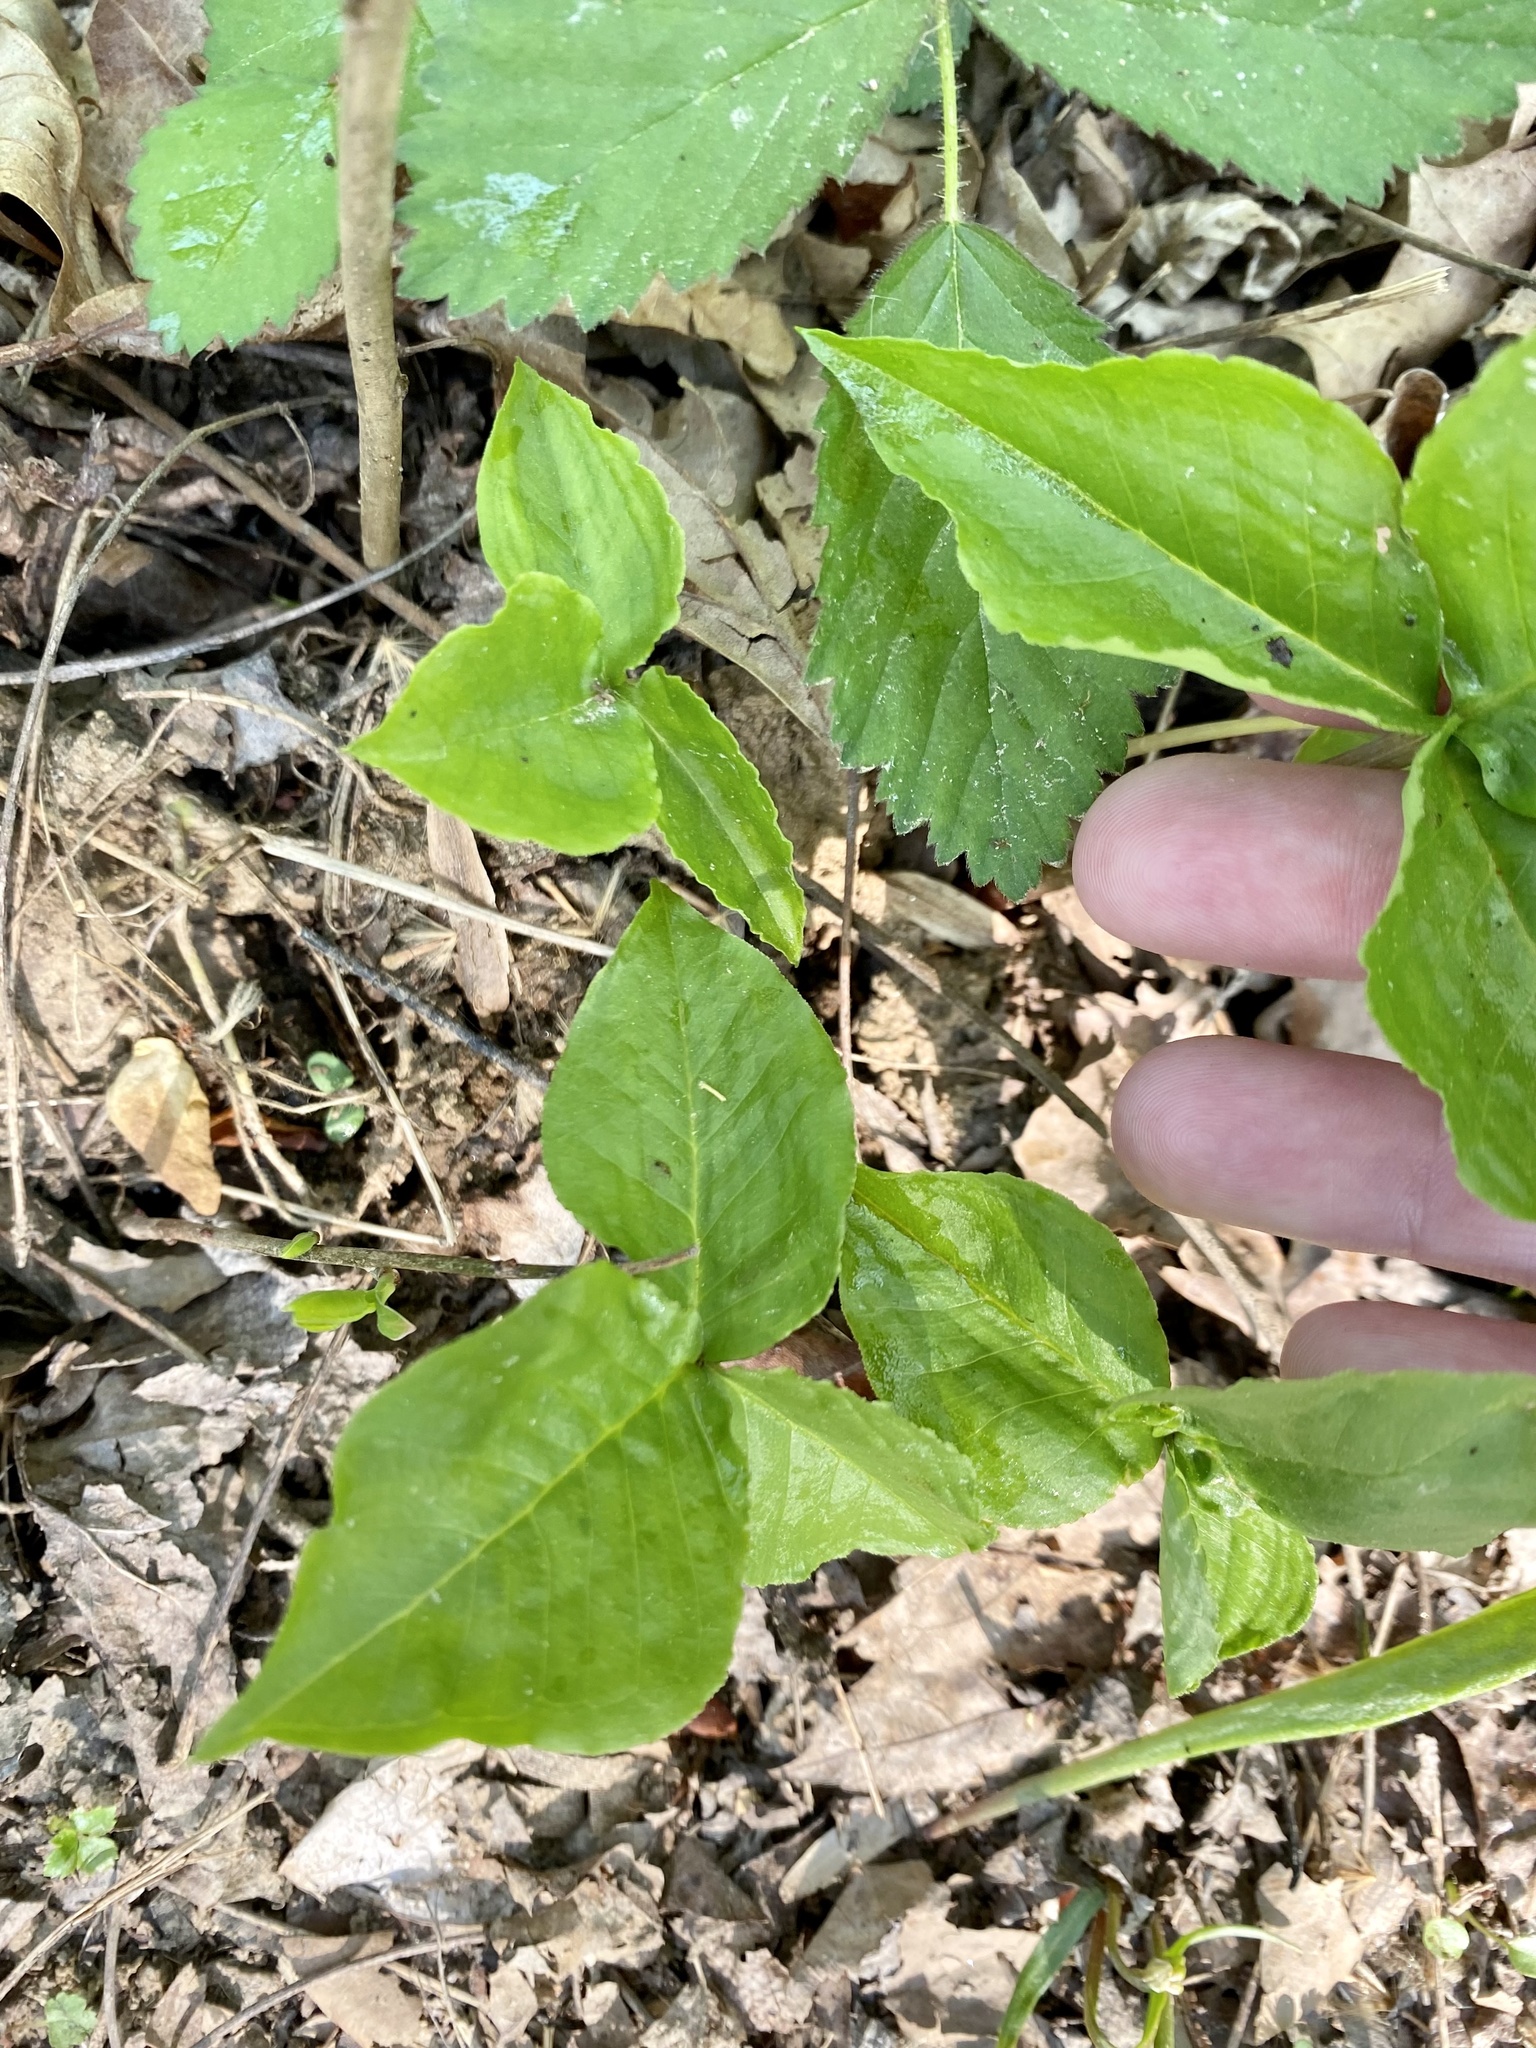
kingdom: Plantae
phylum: Tracheophyta
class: Liliopsida
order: Alismatales
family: Araceae
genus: Arisaema
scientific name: Arisaema triphyllum
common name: Jack-in-the-pulpit
